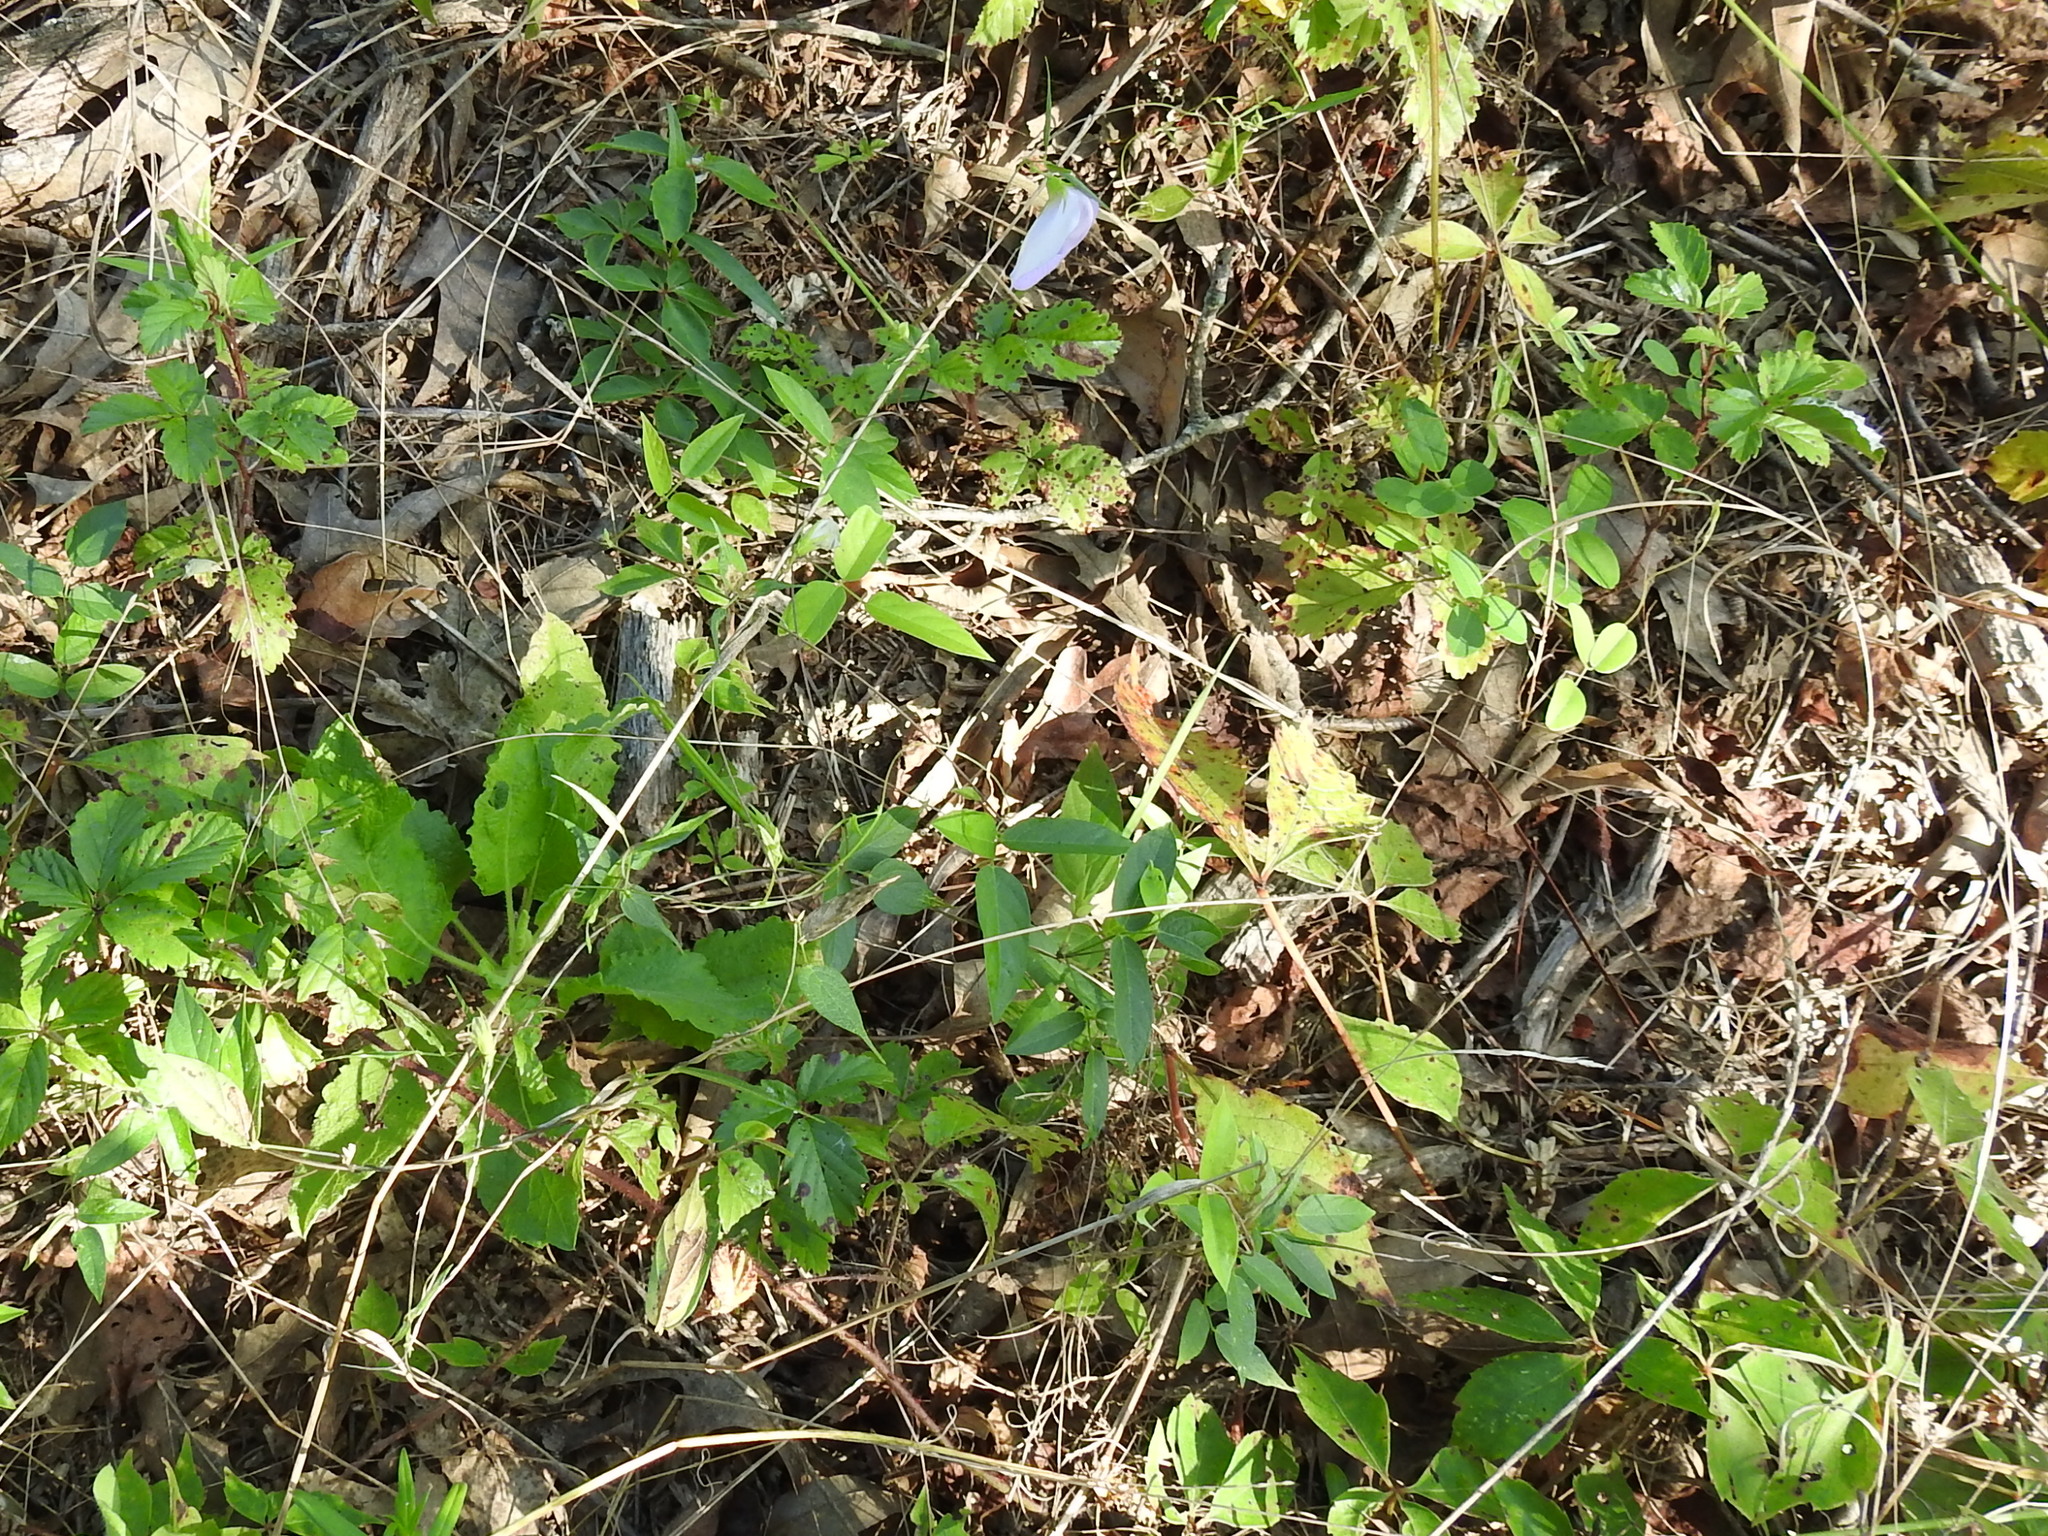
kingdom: Plantae
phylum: Tracheophyta
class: Magnoliopsida
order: Fabales
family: Fabaceae
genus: Centrosema
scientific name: Centrosema virginianum
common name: Butterfly-pea
